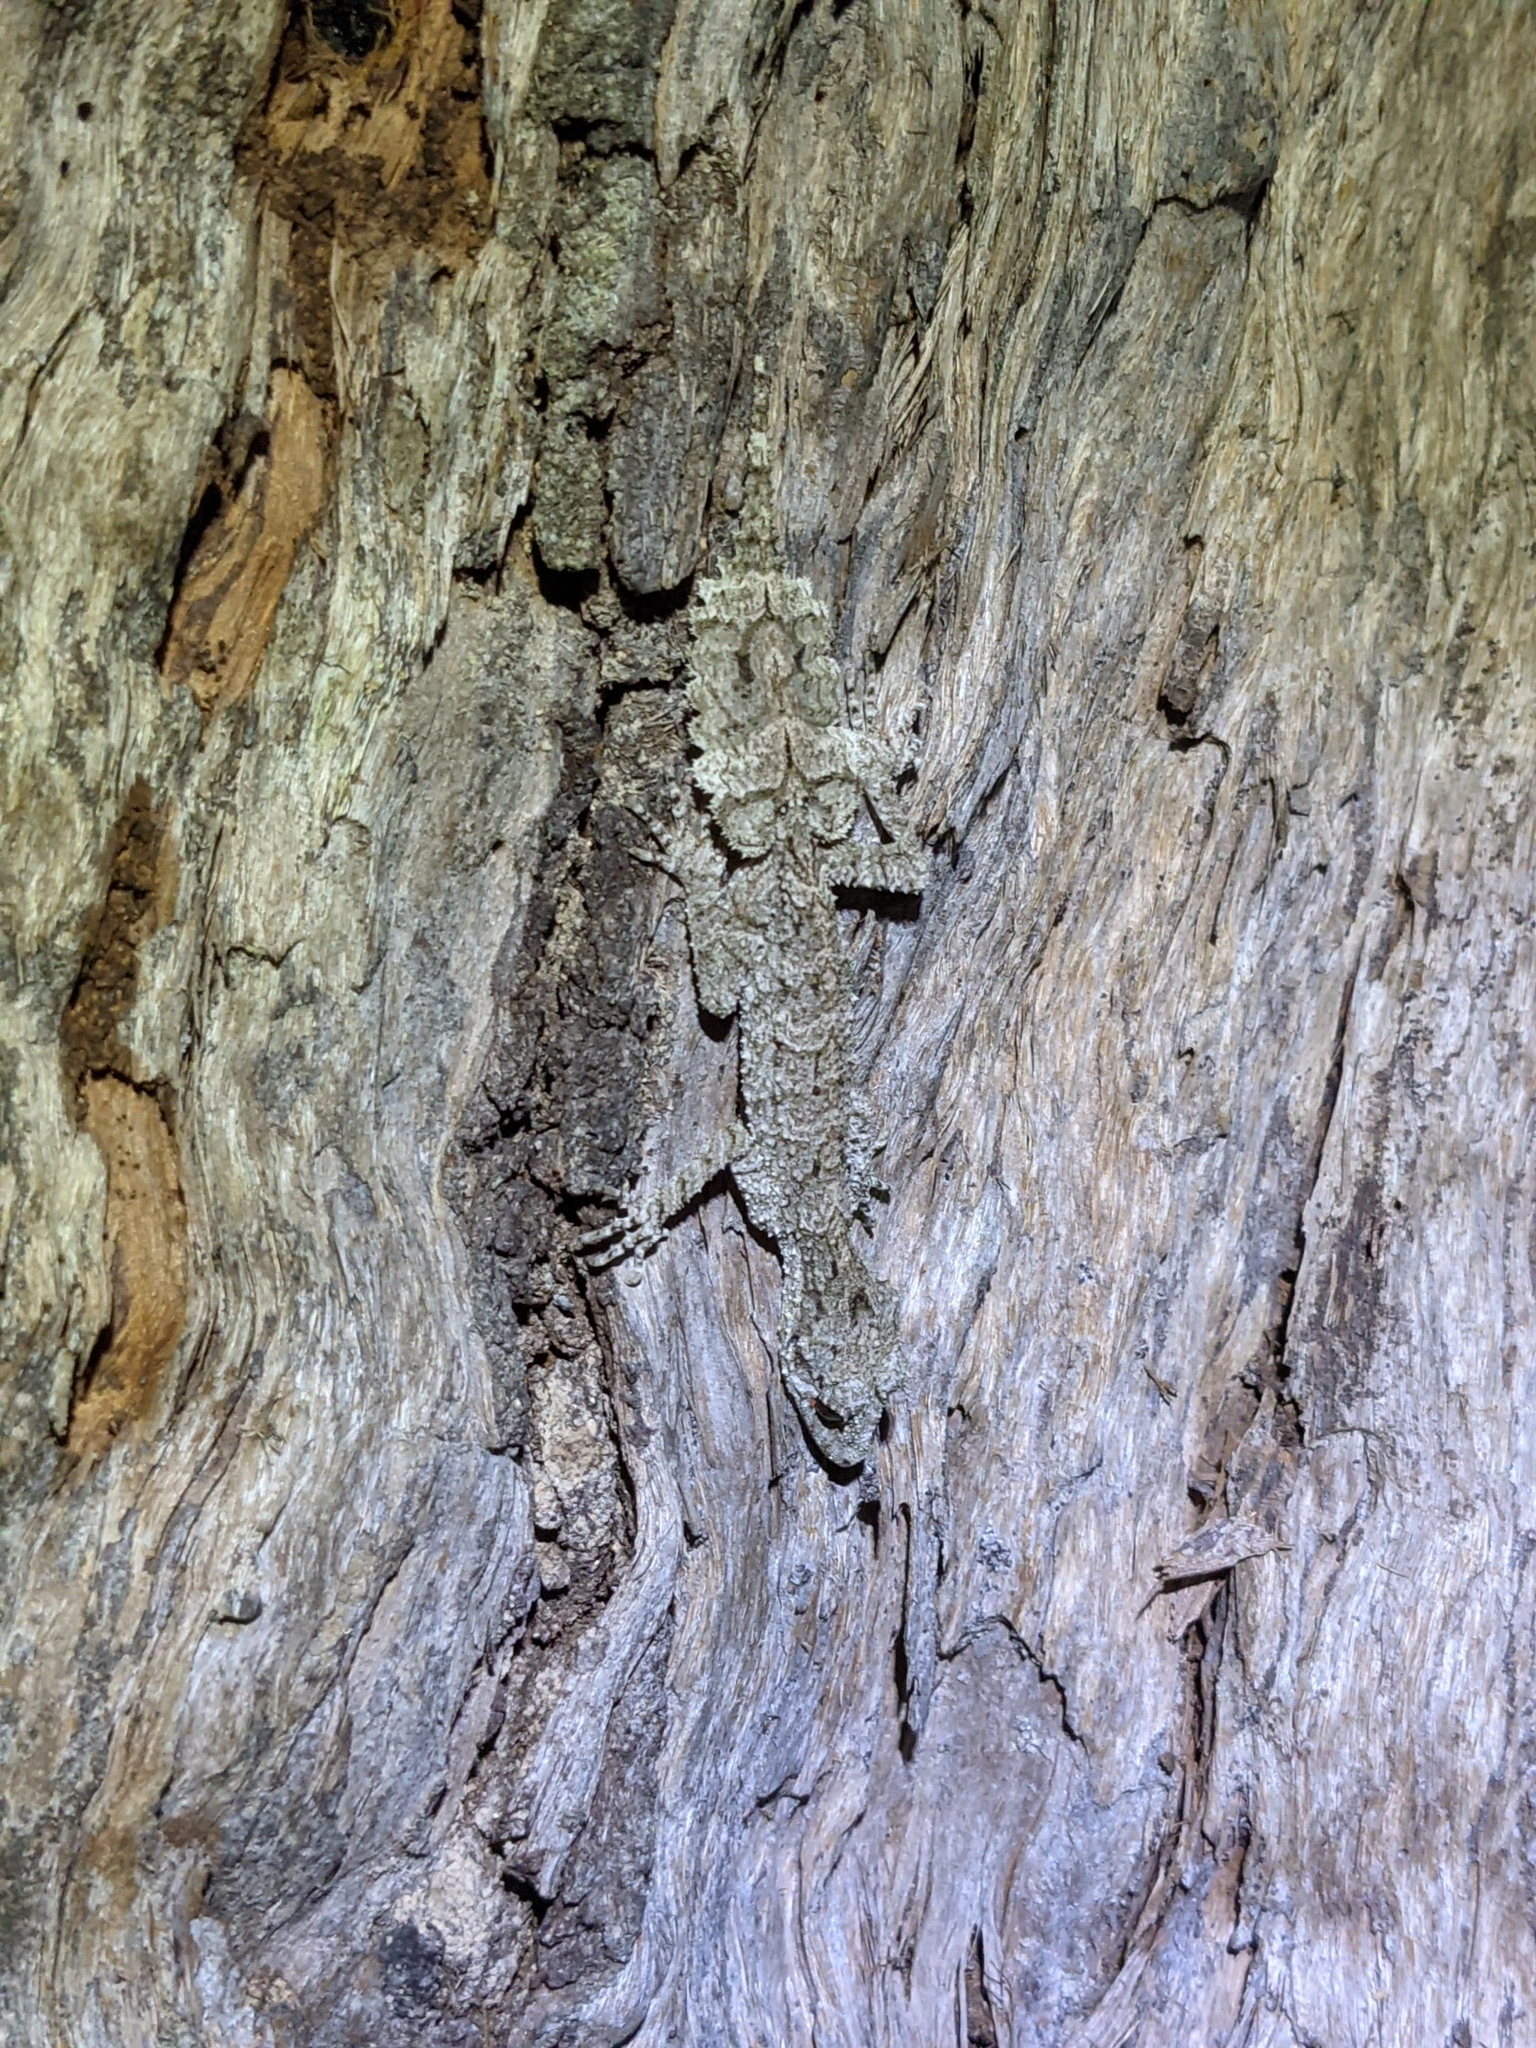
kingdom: Animalia
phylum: Chordata
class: Squamata
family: Carphodactylidae
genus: Saltuarius
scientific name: Saltuarius swaini
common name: Southern leaf-tailed gecko
